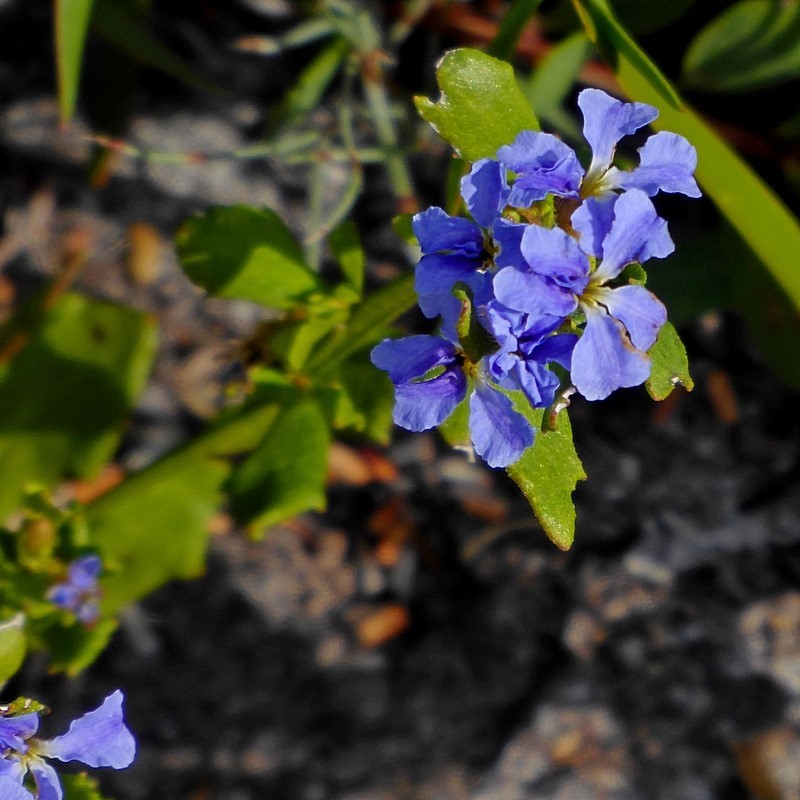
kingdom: Plantae
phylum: Tracheophyta
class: Magnoliopsida
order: Asterales
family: Goodeniaceae
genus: Dampiera
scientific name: Dampiera stricta
